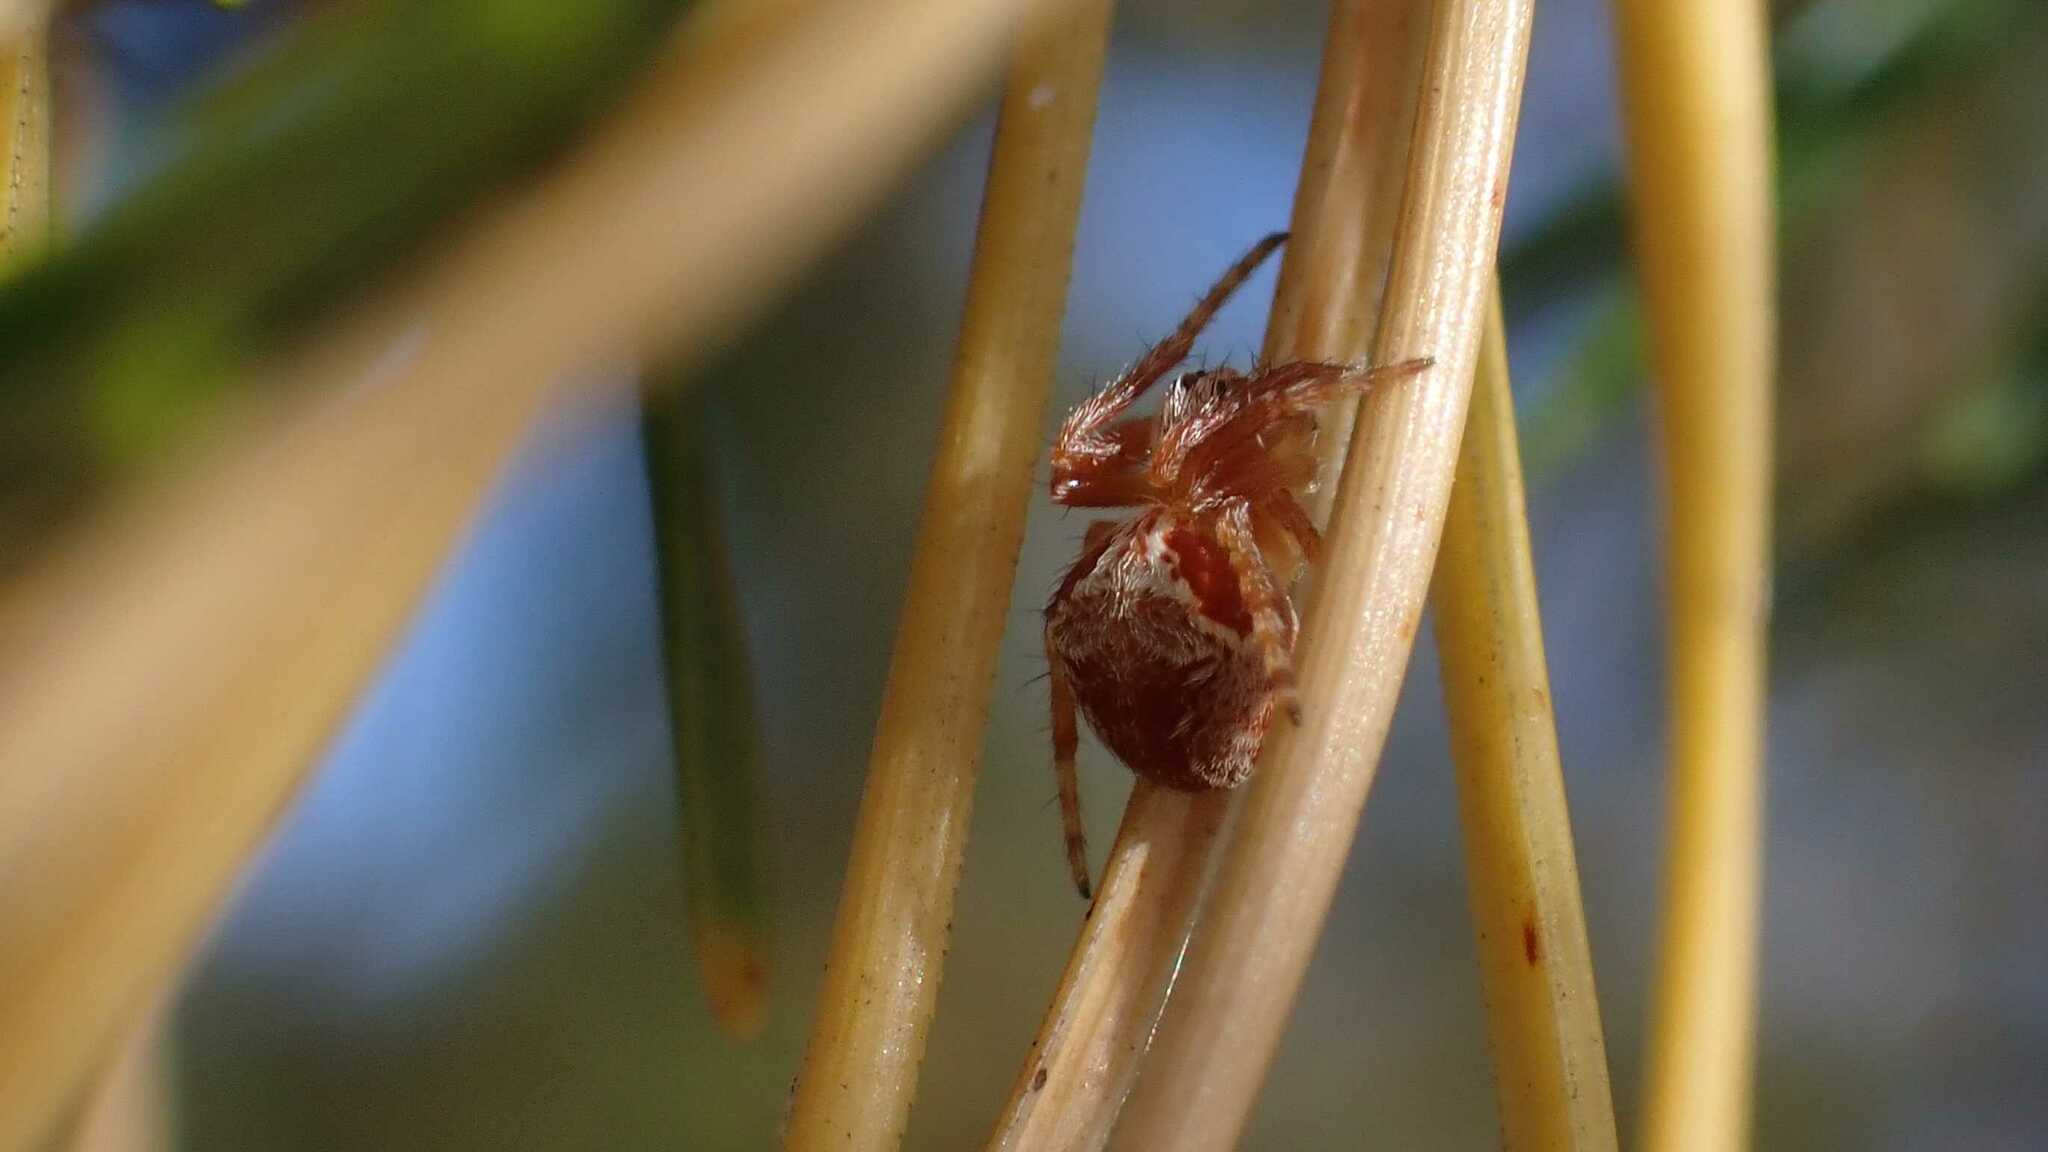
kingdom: Animalia
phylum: Arthropoda
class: Arachnida
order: Araneae
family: Araneidae
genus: Araneus
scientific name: Araneus sturmi
